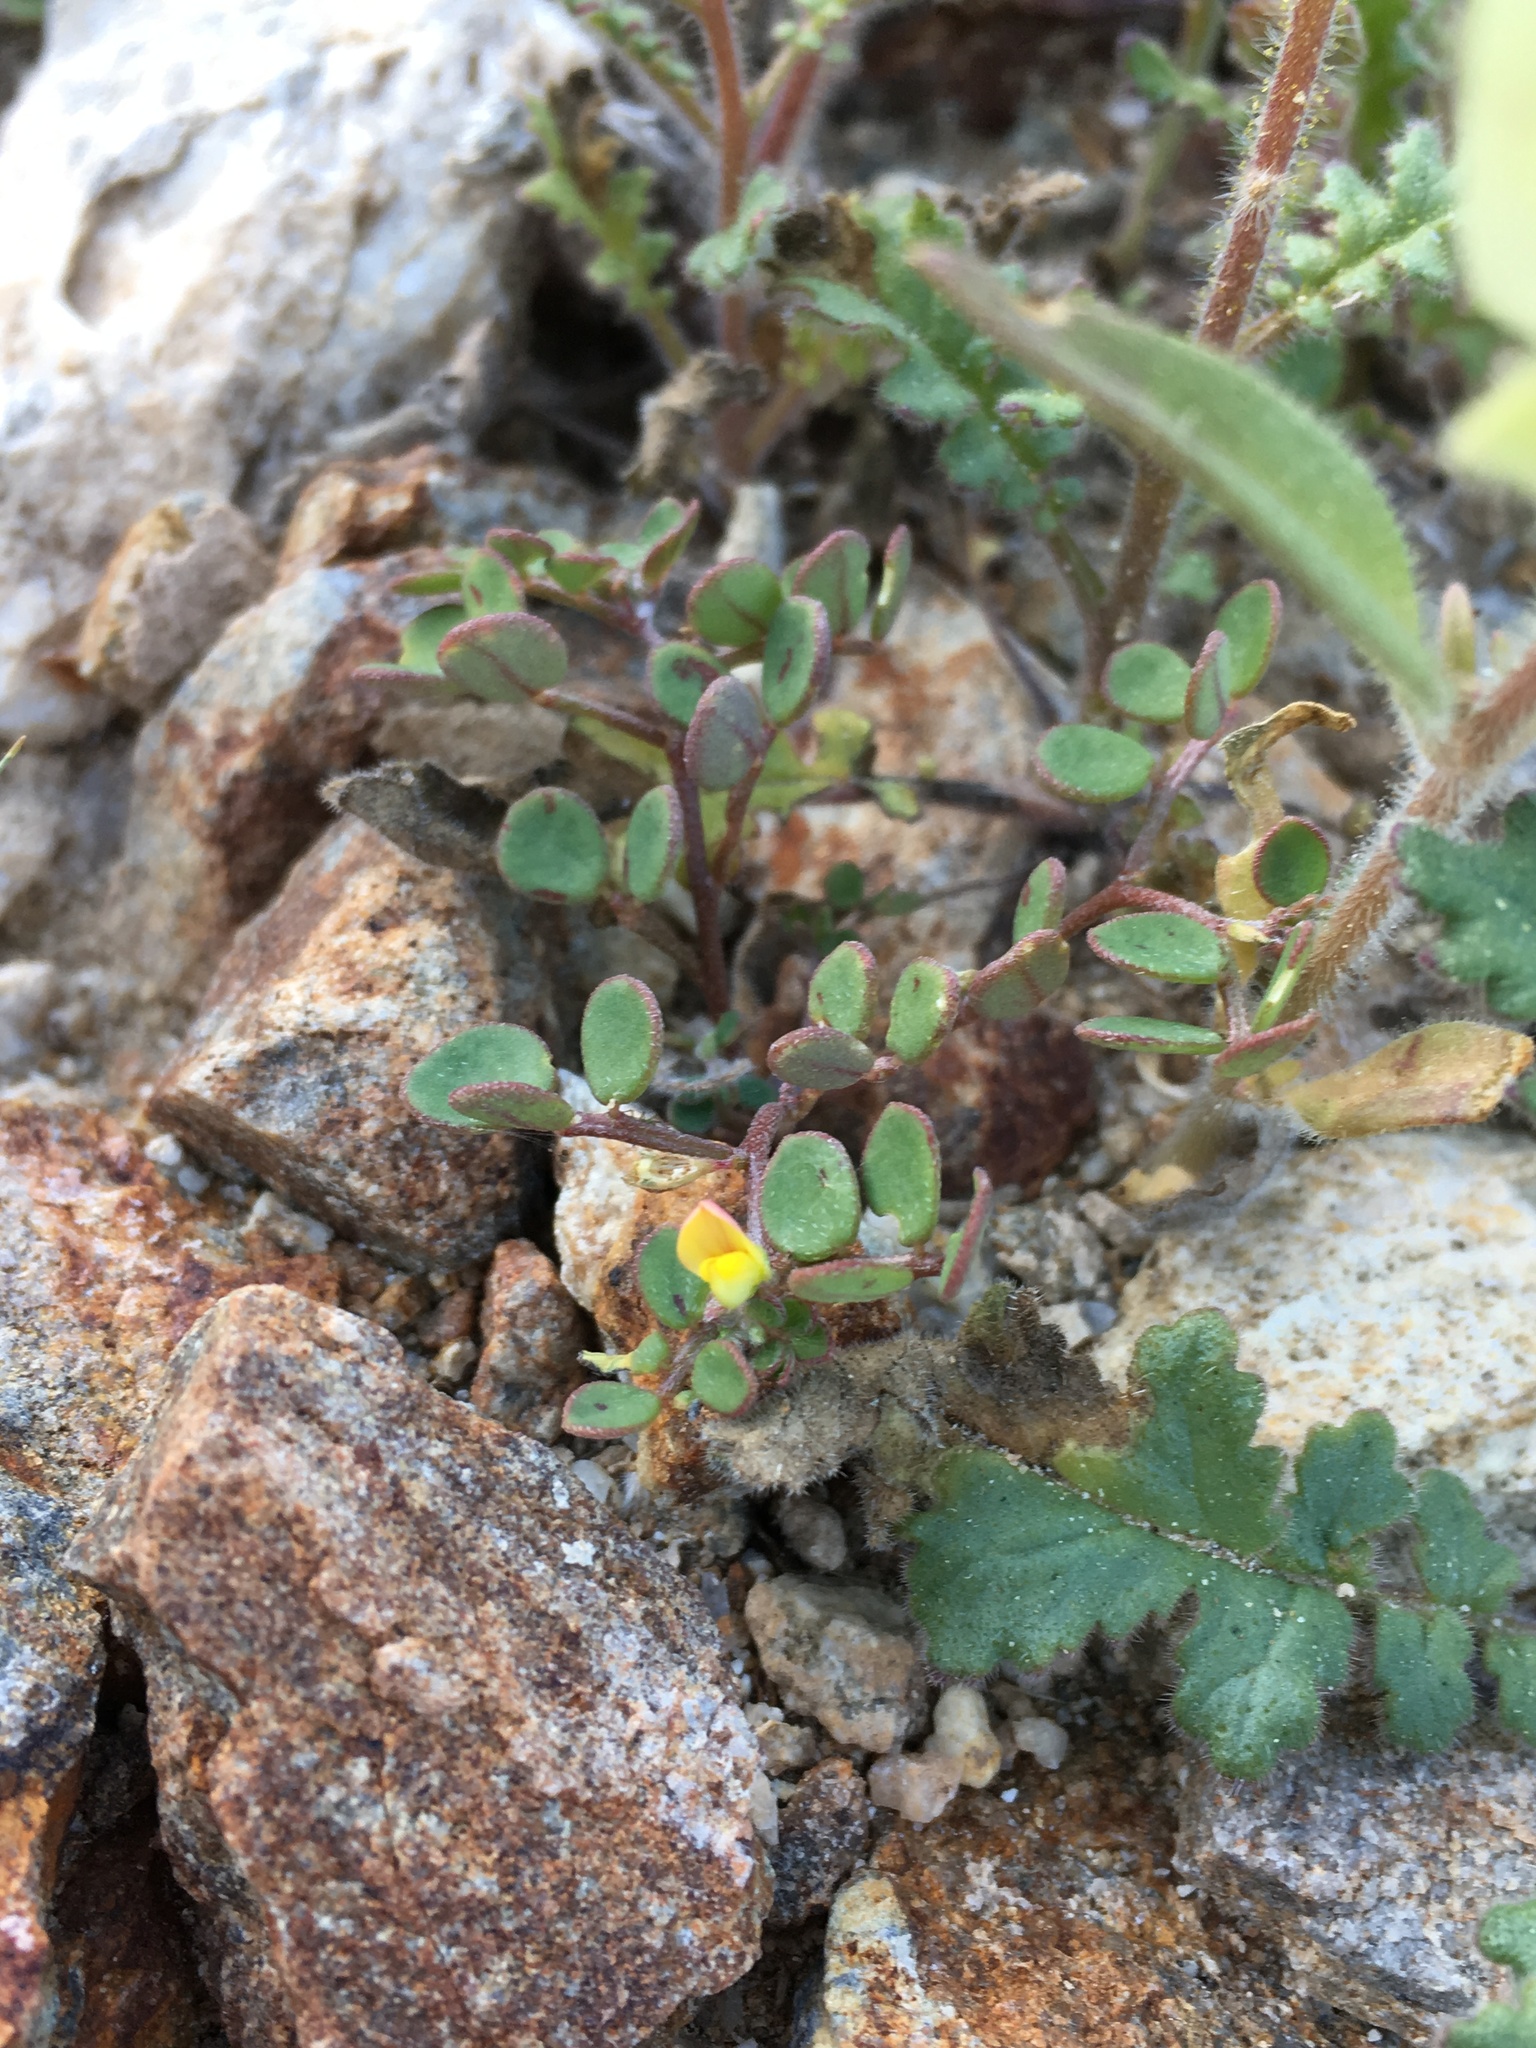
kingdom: Plantae
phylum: Tracheophyta
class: Magnoliopsida
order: Fabales
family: Fabaceae
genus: Acmispon
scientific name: Acmispon maritimus
